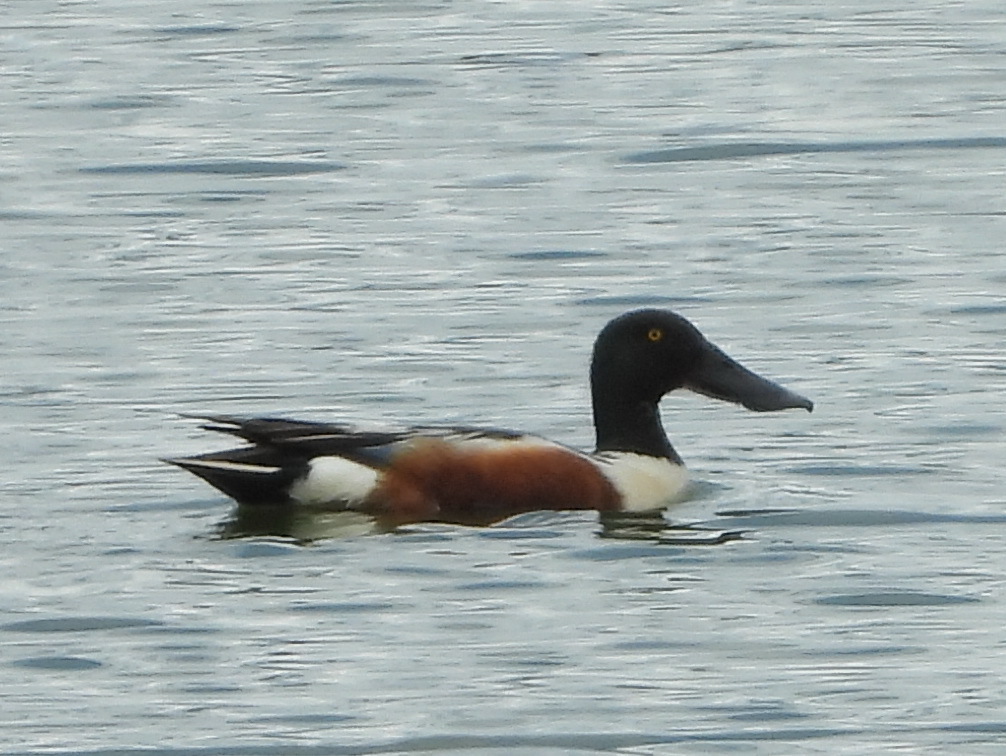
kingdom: Animalia
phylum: Chordata
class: Aves
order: Anseriformes
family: Anatidae
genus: Spatula
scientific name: Spatula clypeata
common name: Northern shoveler
